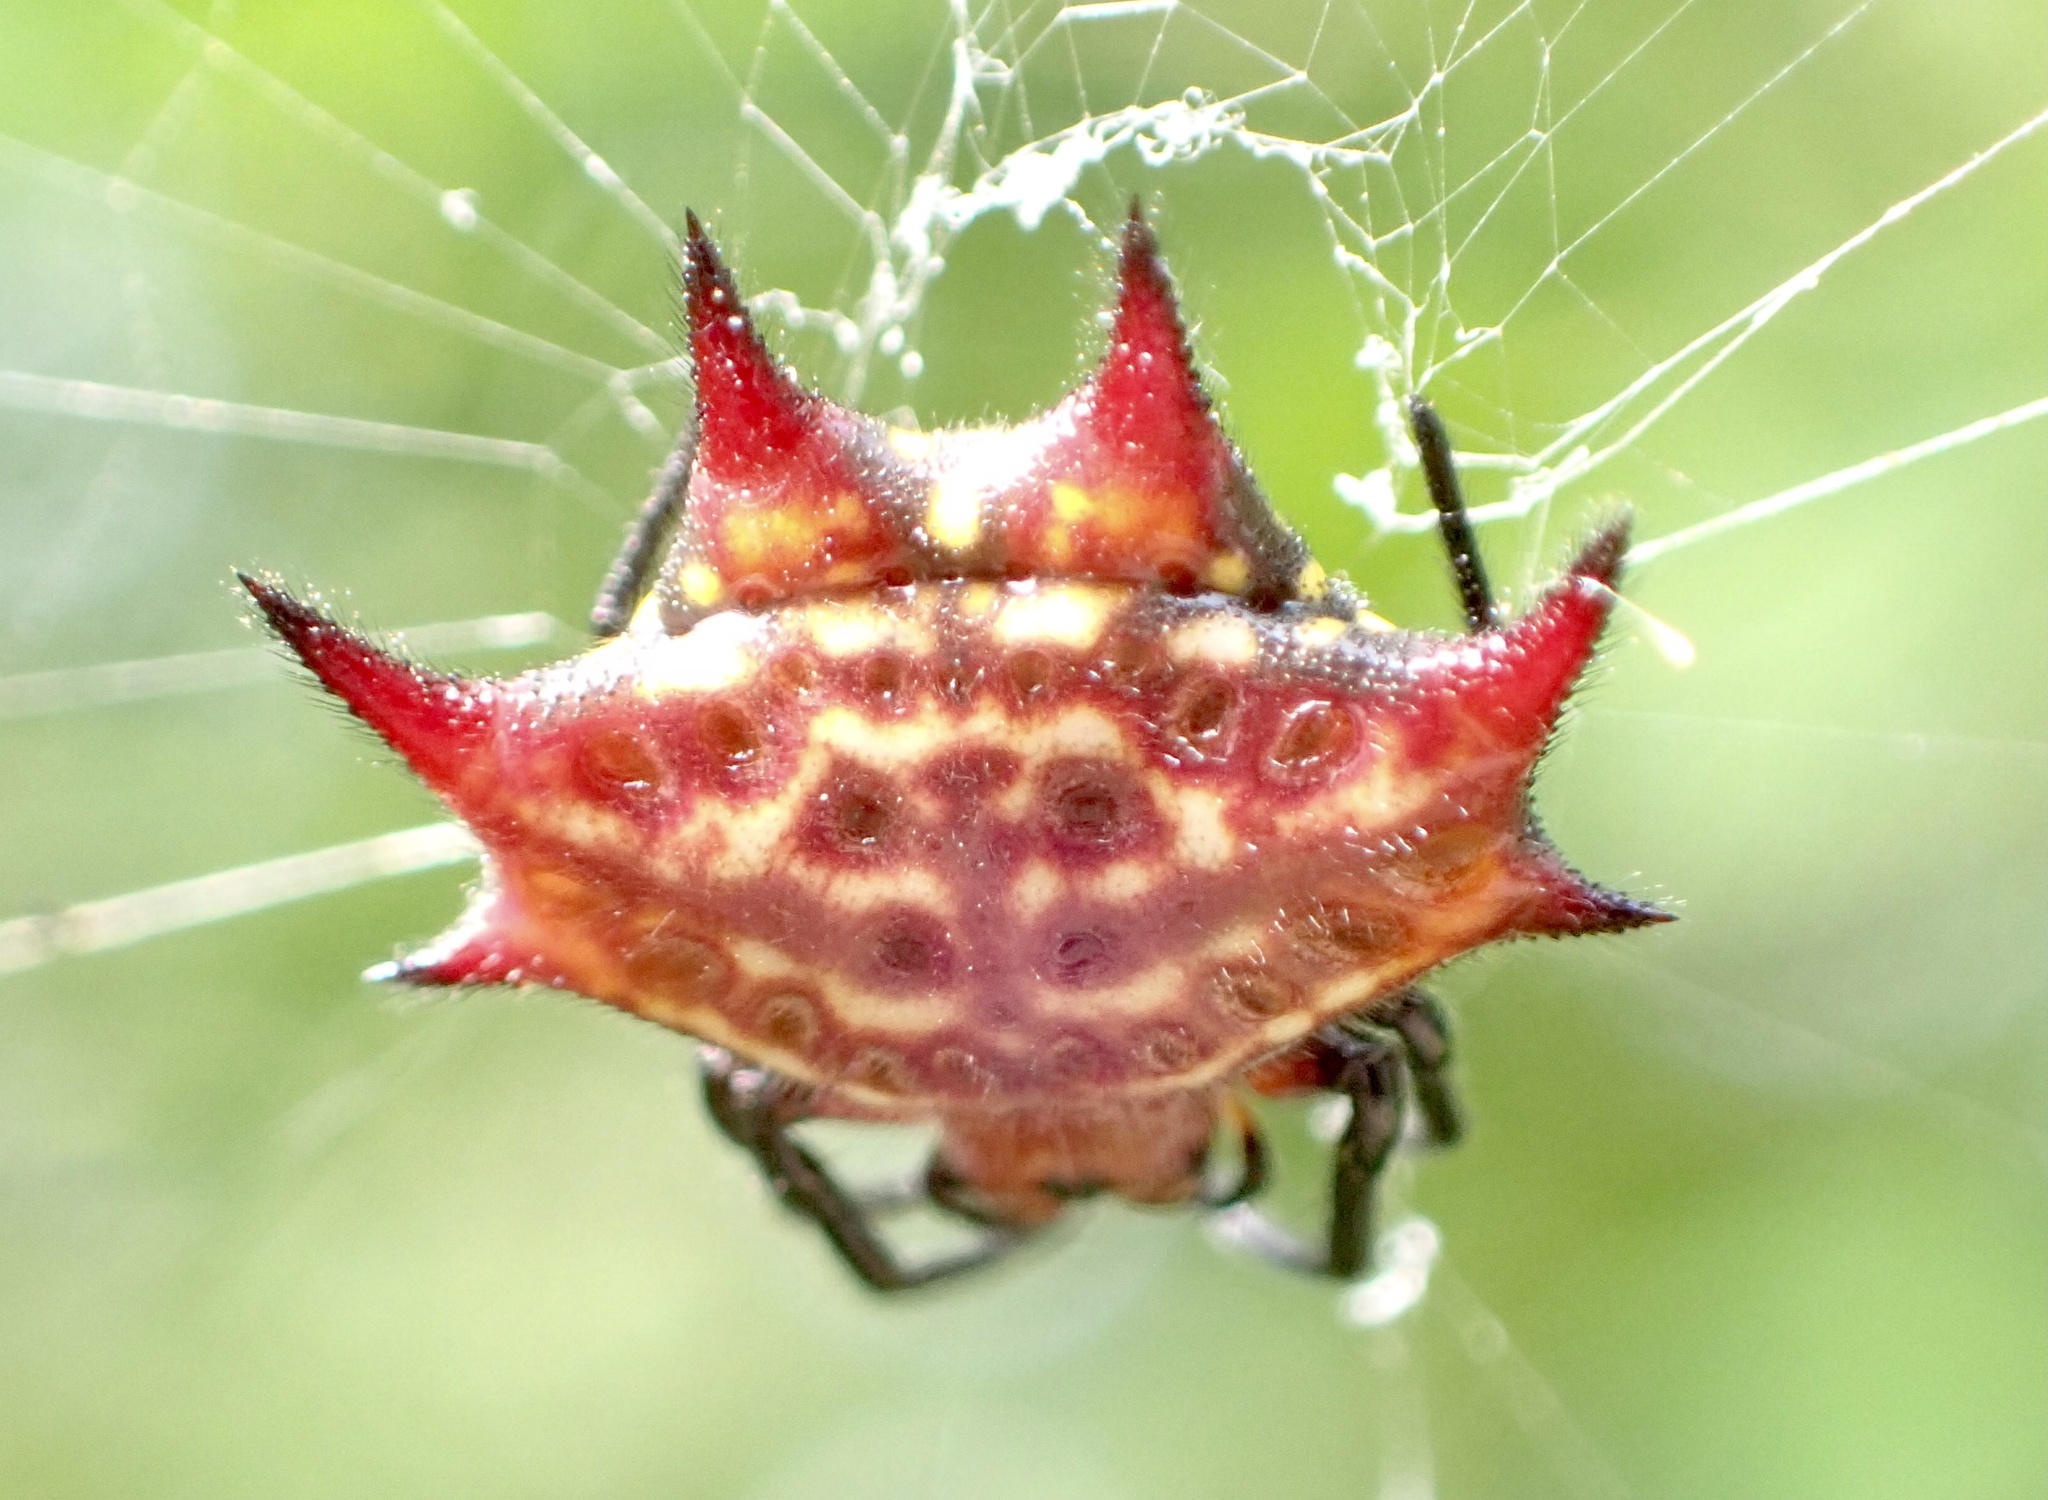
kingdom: Animalia
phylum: Arthropoda
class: Arachnida
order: Araneae
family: Araneidae
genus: Gasteracantha
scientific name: Gasteracantha curvispina
